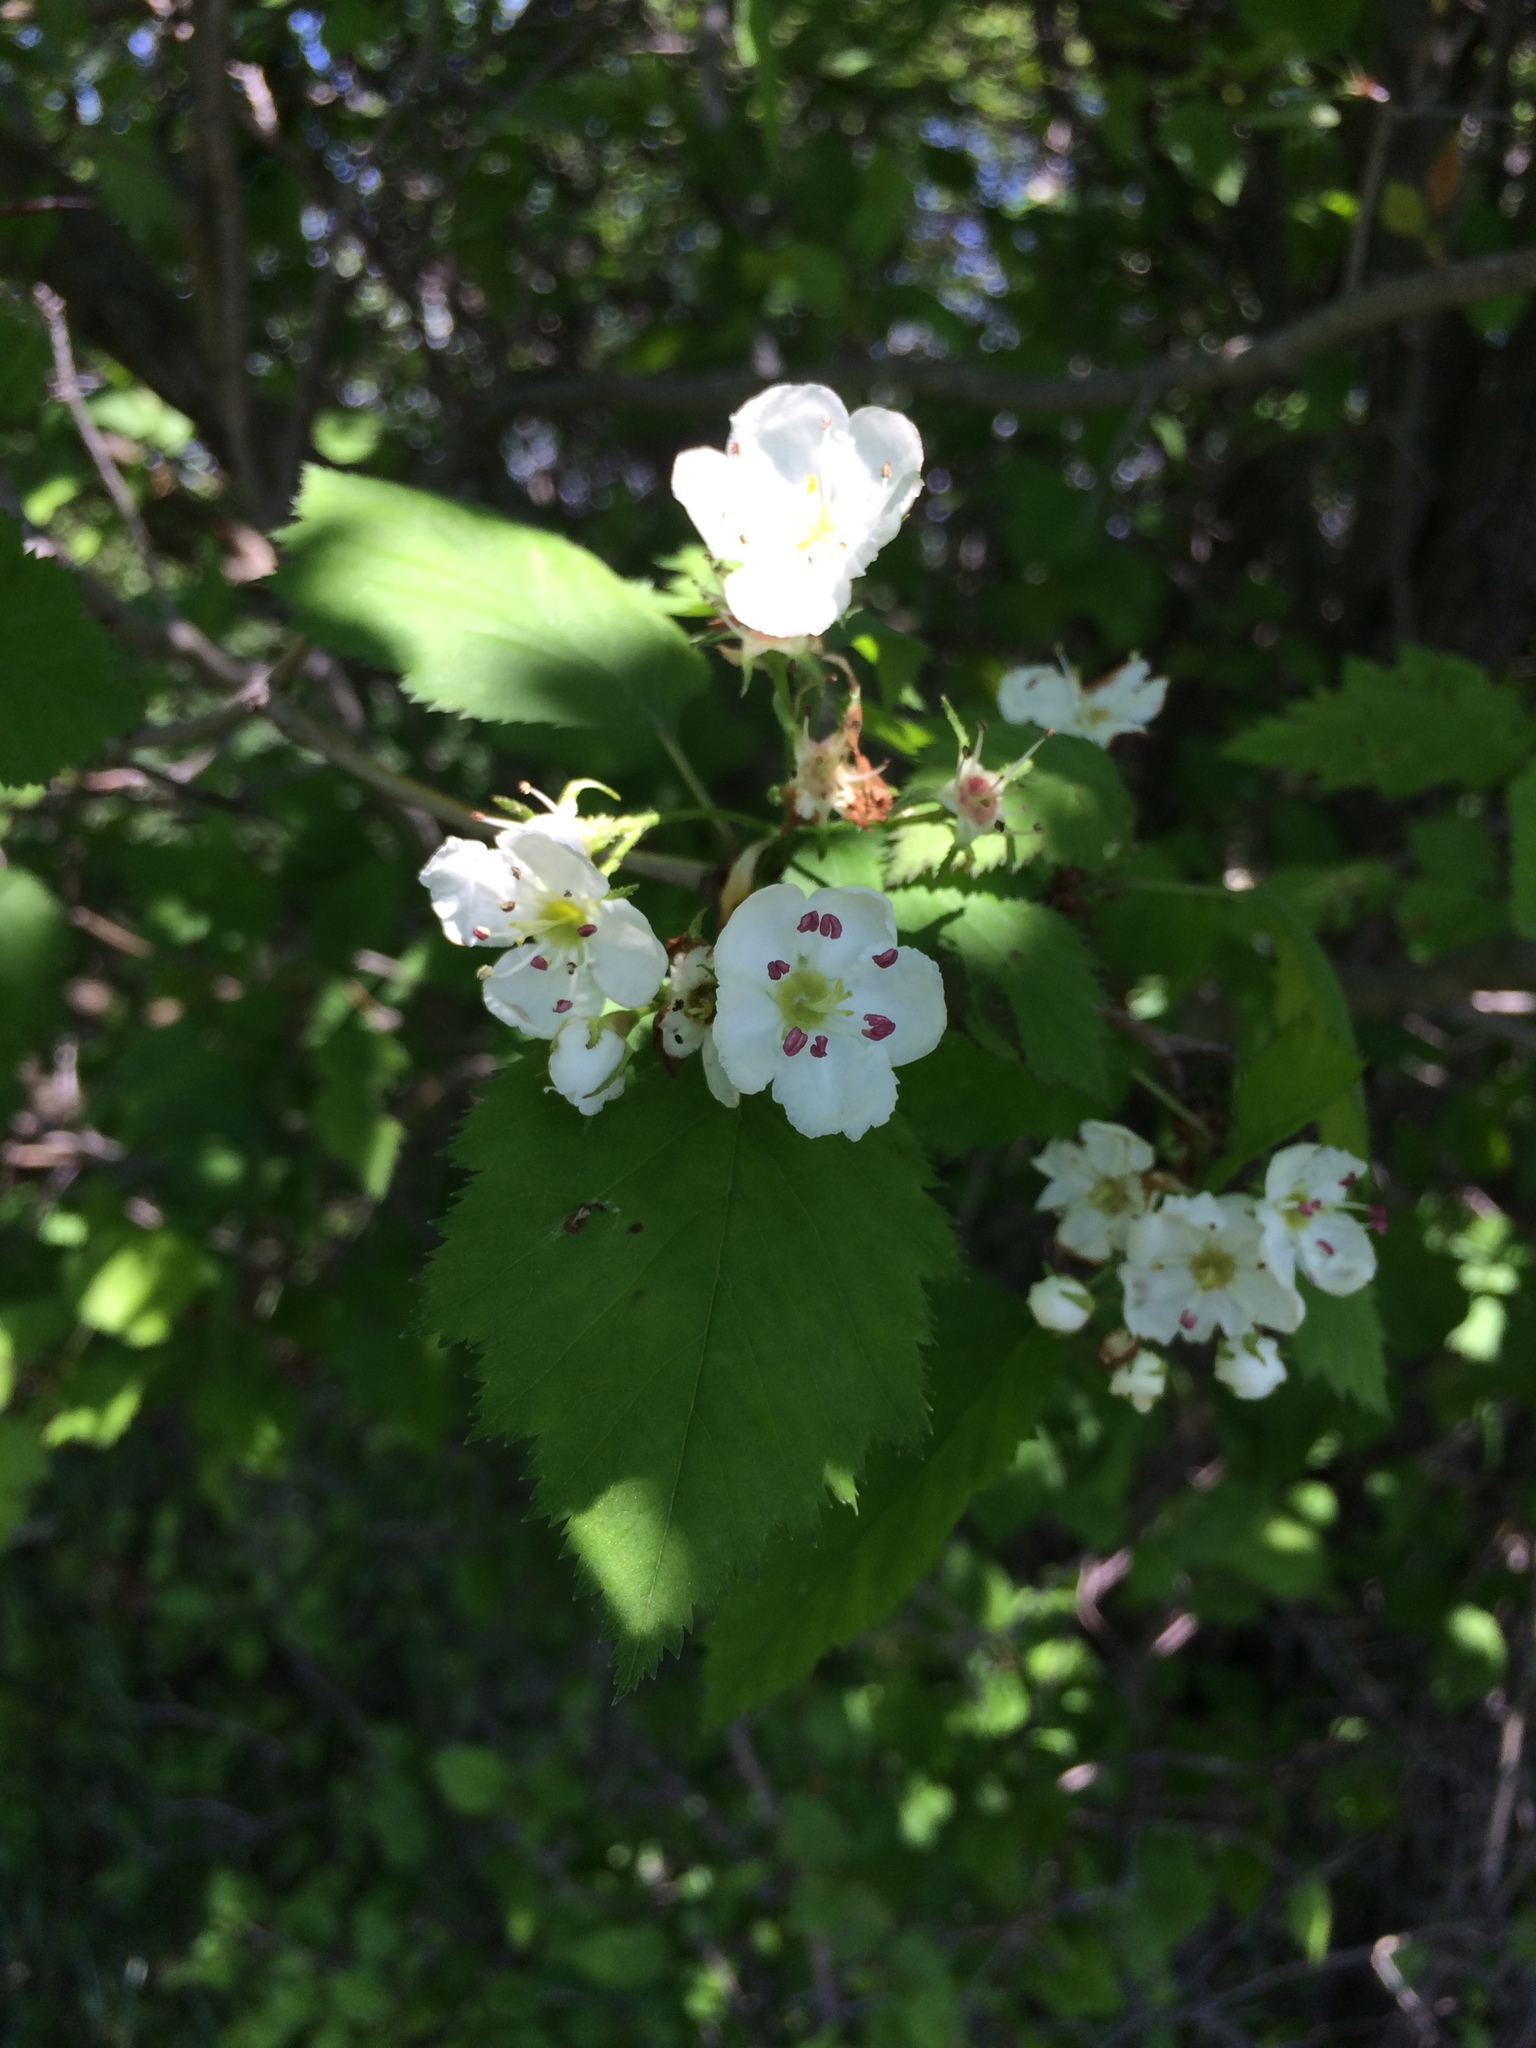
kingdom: Plantae
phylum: Tracheophyta
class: Magnoliopsida
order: Rosales
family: Rosaceae
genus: Crataegus
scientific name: Crataegus holmesiana
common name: Holmes' hawthorn
